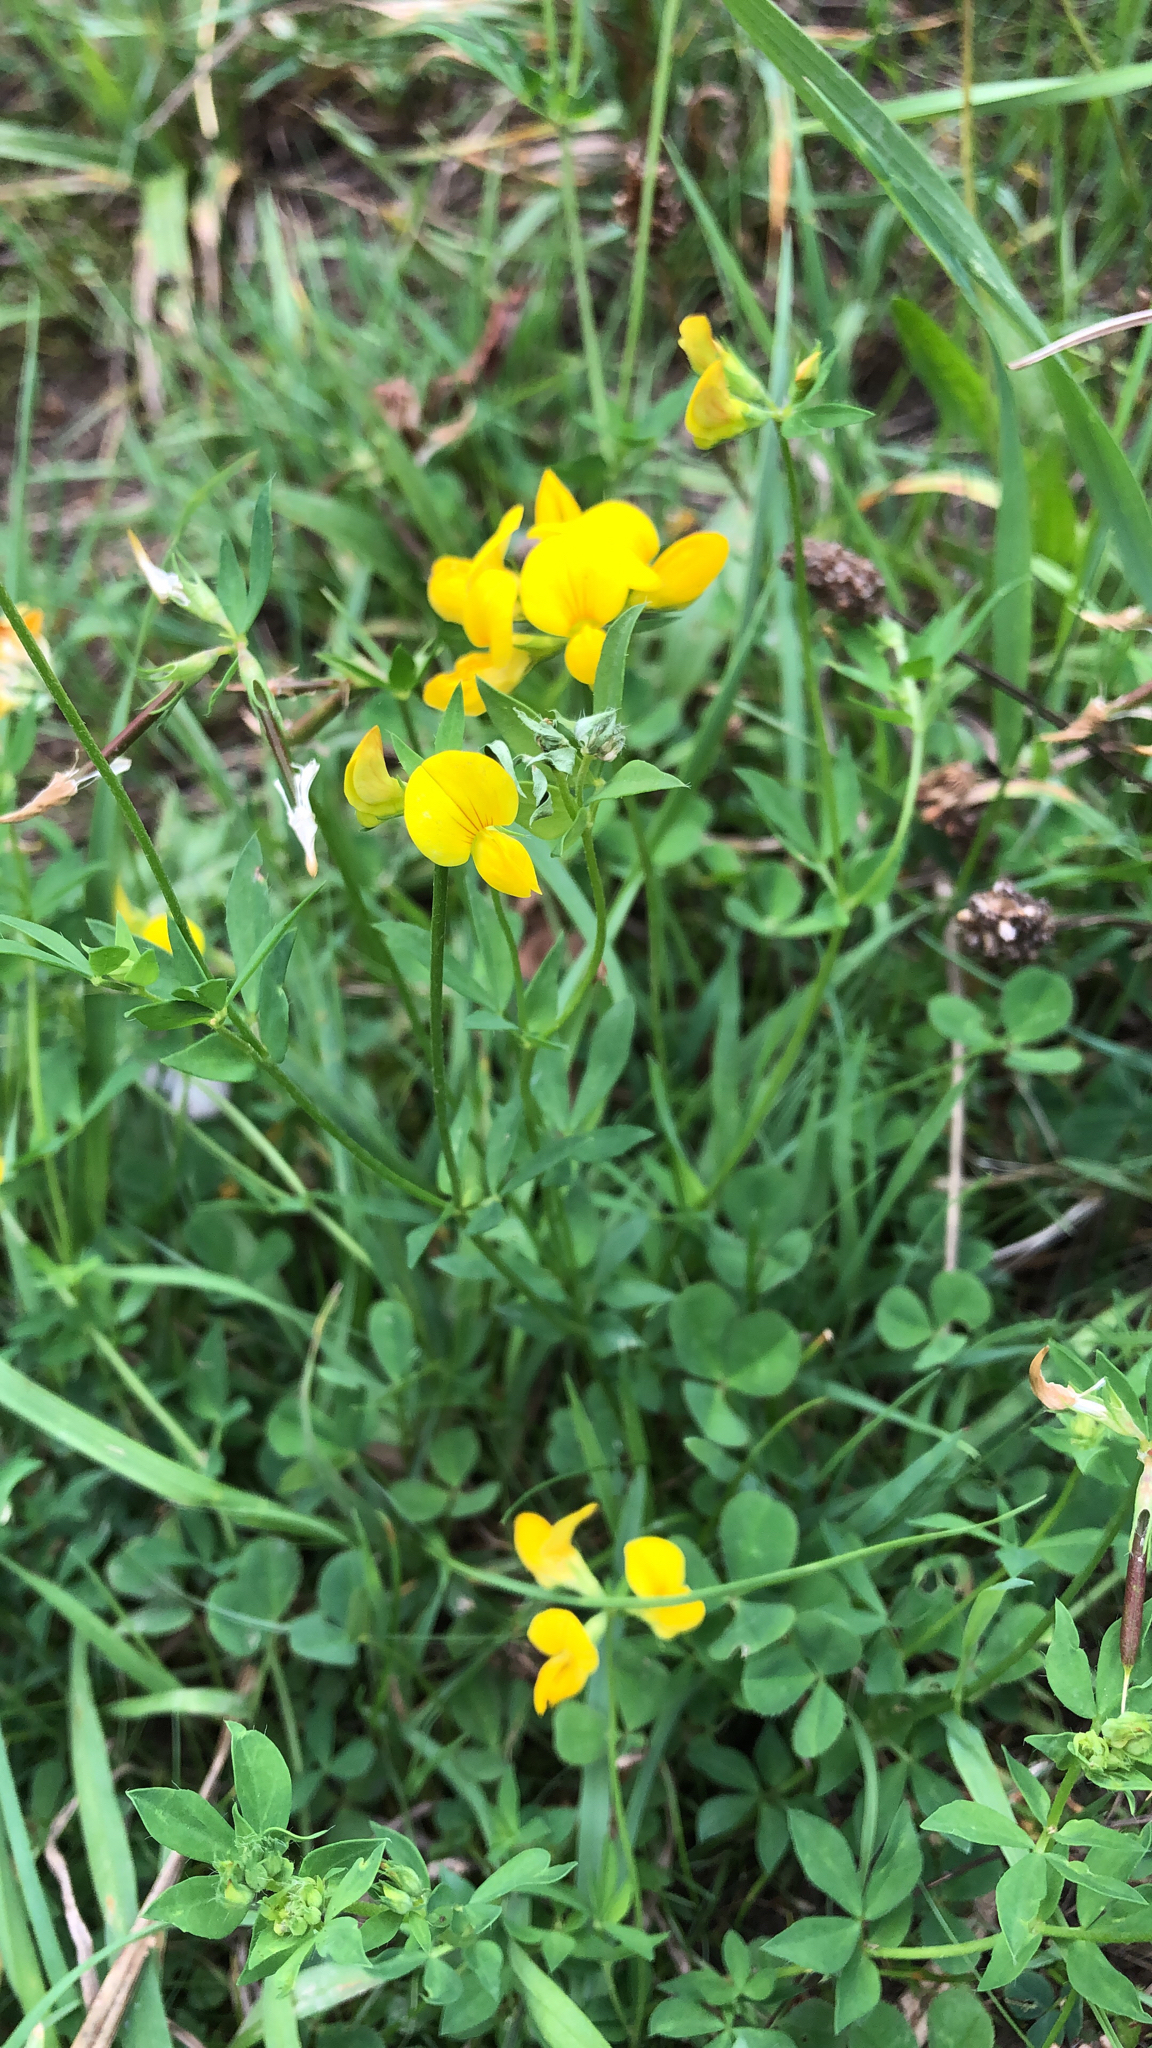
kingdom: Plantae
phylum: Tracheophyta
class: Magnoliopsida
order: Fabales
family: Fabaceae
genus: Lotus
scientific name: Lotus corniculatus
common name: Common bird's-foot-trefoil
